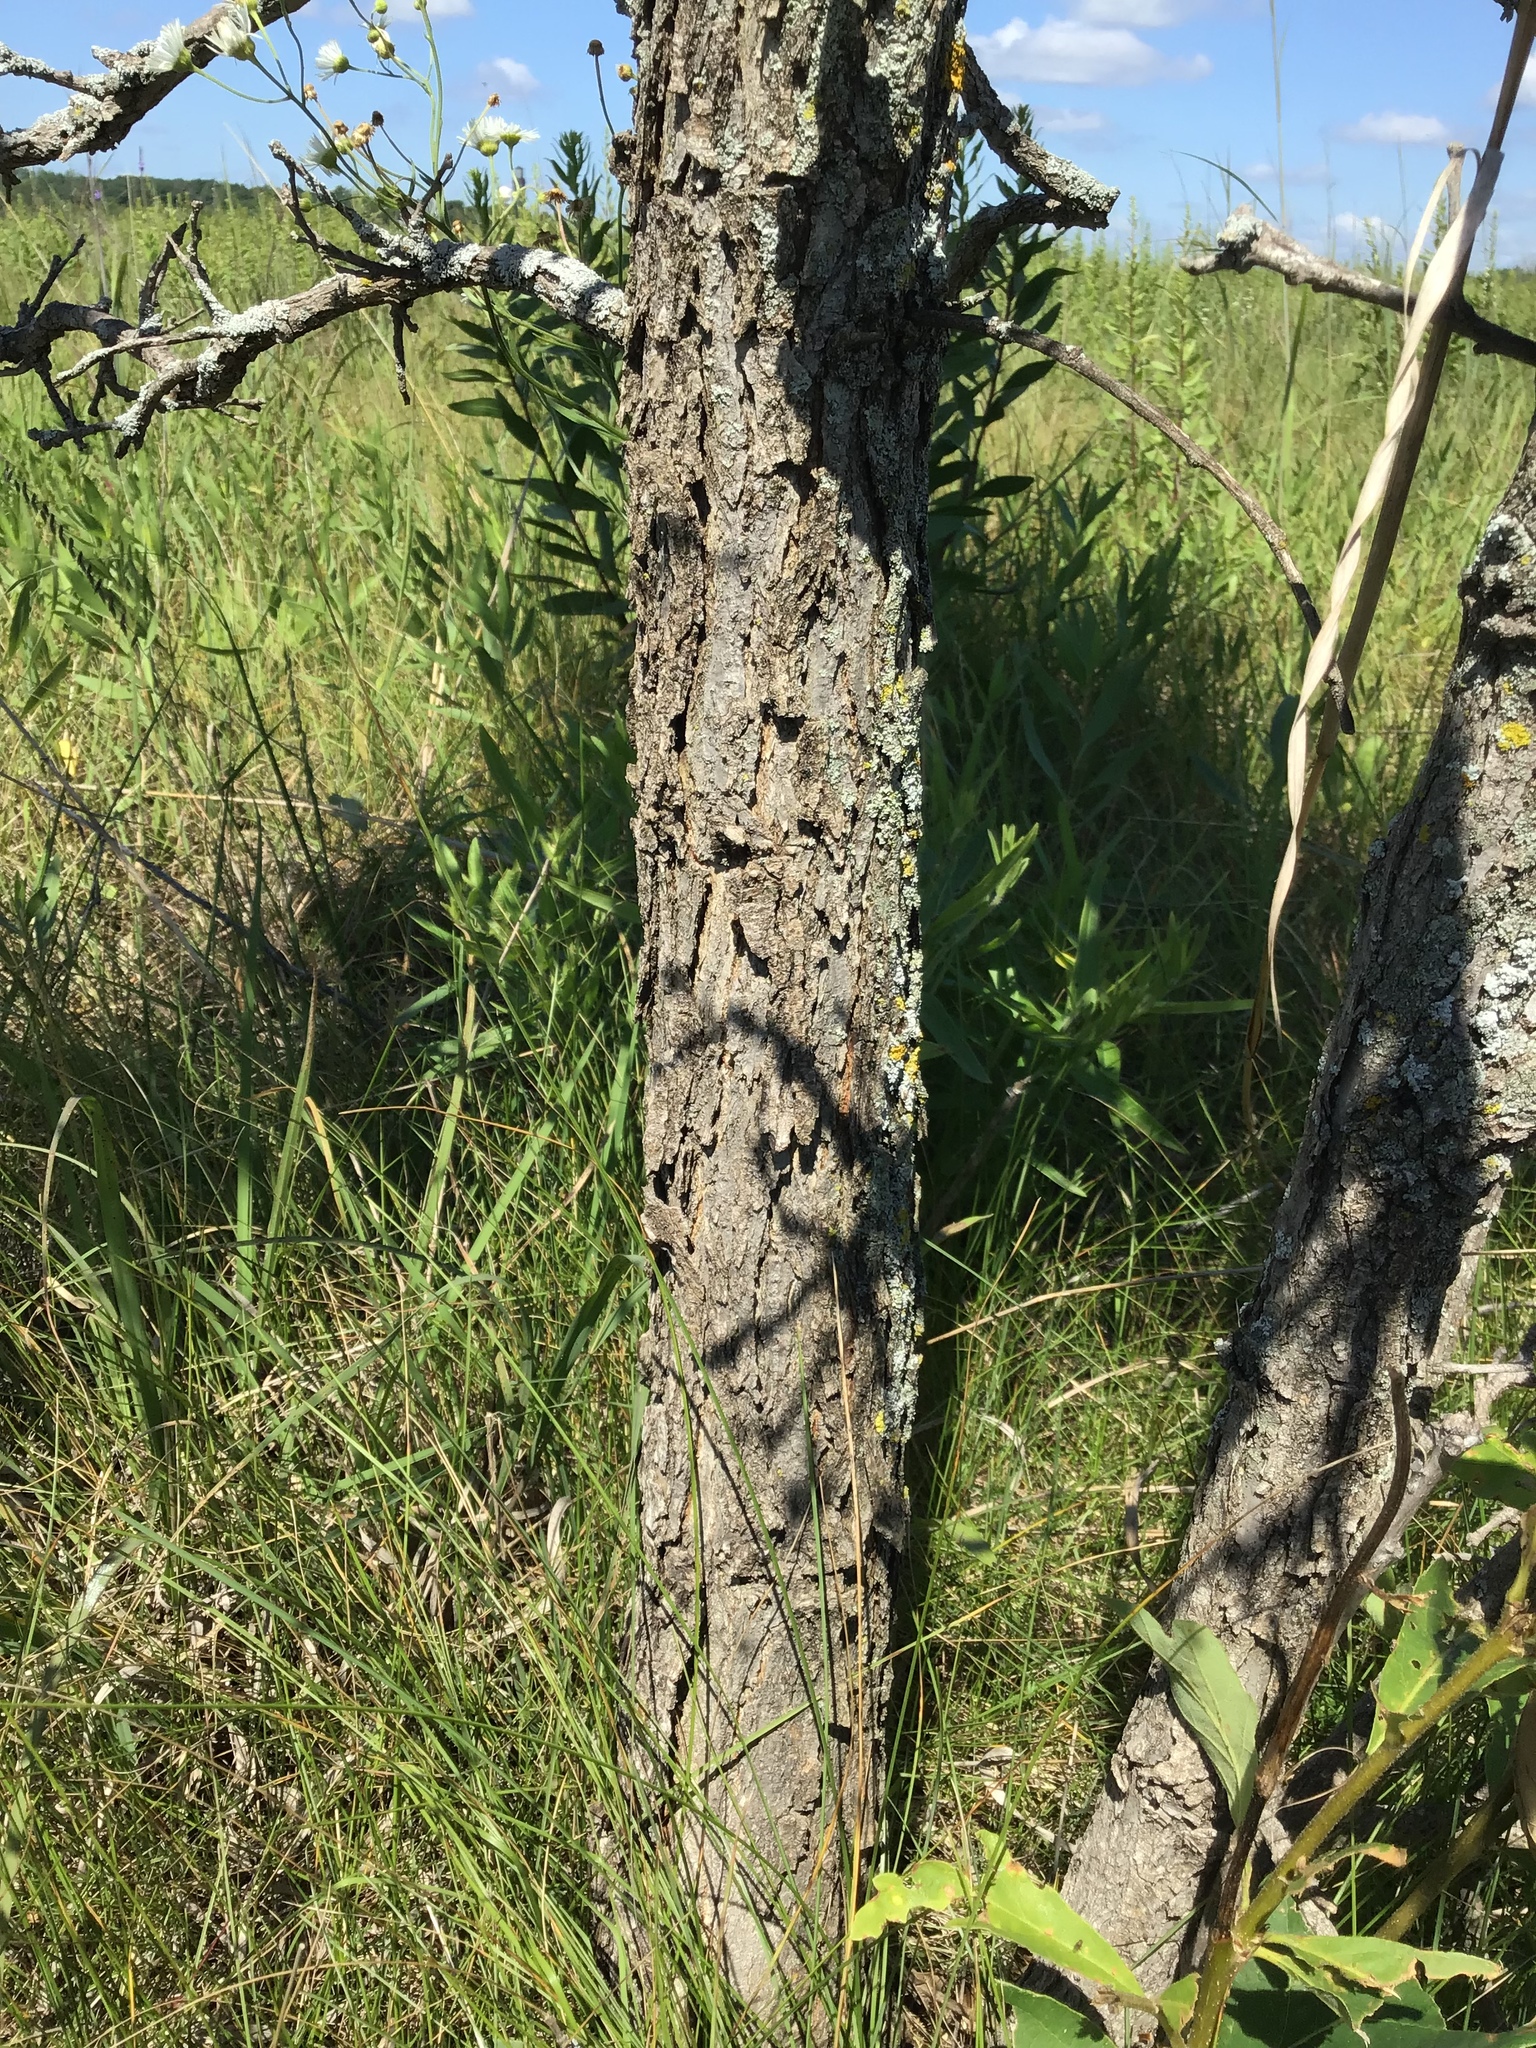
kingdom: Plantae
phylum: Tracheophyta
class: Magnoliopsida
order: Fagales
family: Fagaceae
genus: Quercus
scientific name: Quercus macrocarpa
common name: Bur oak
